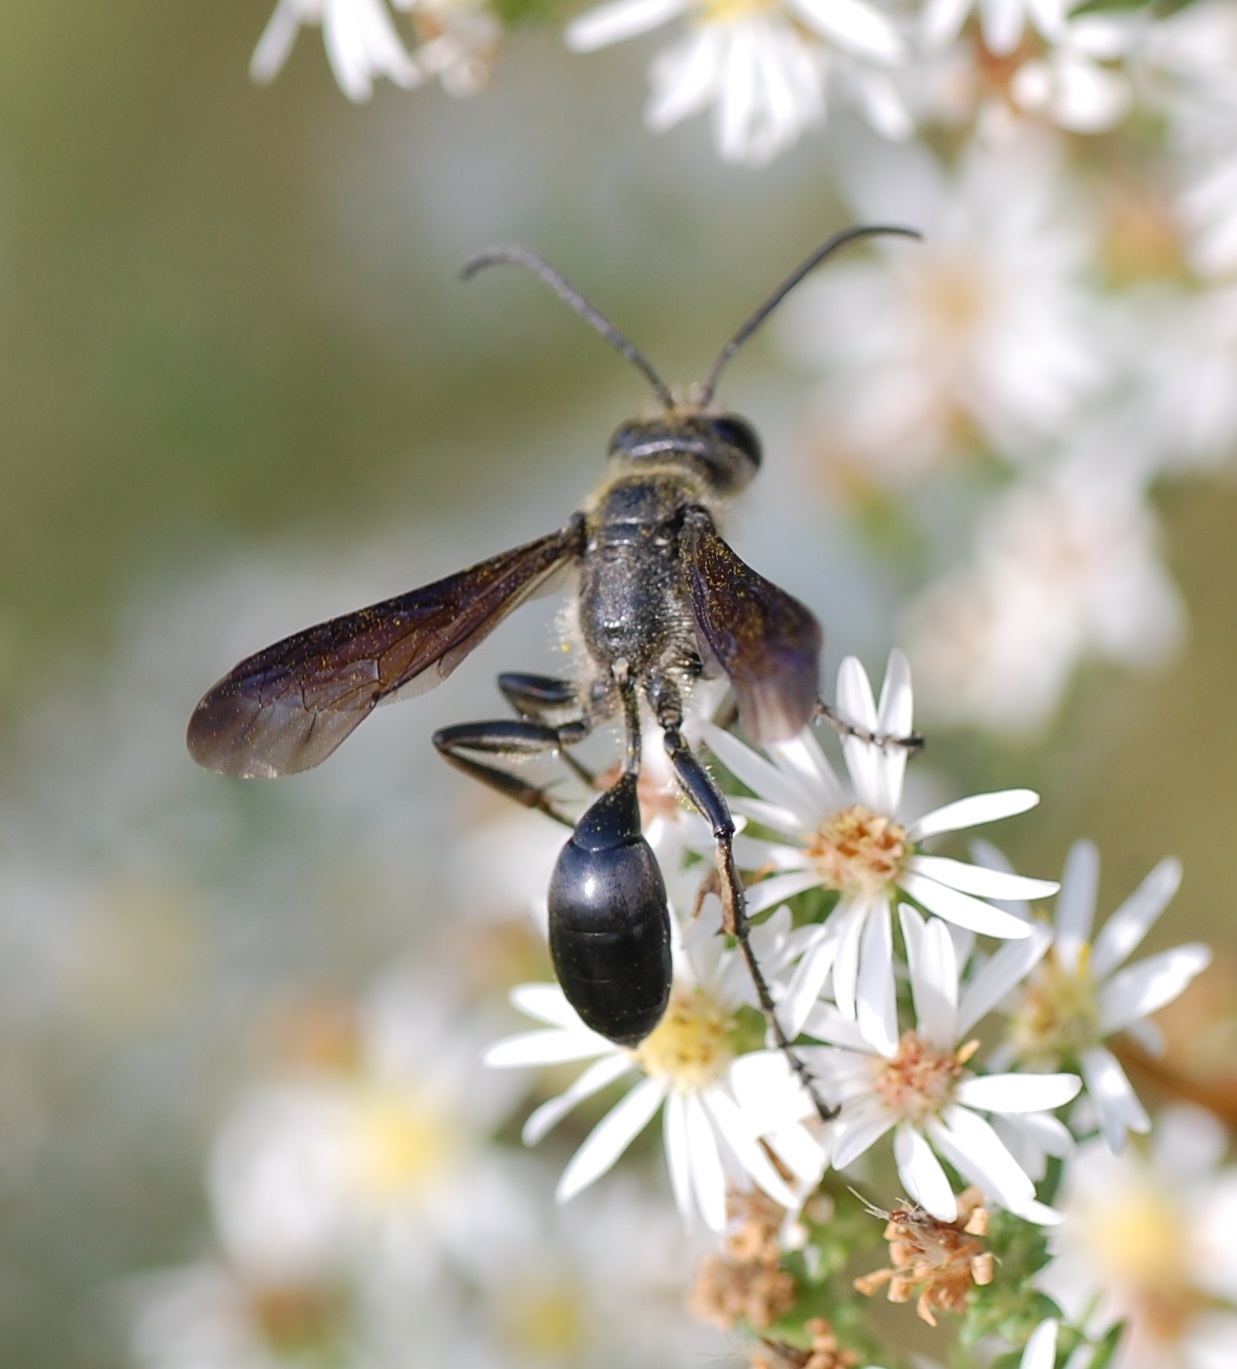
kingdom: Animalia
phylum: Arthropoda
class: Insecta
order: Hymenoptera
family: Sphecidae
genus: Isodontia
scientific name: Isodontia mexicana
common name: Mud dauber
